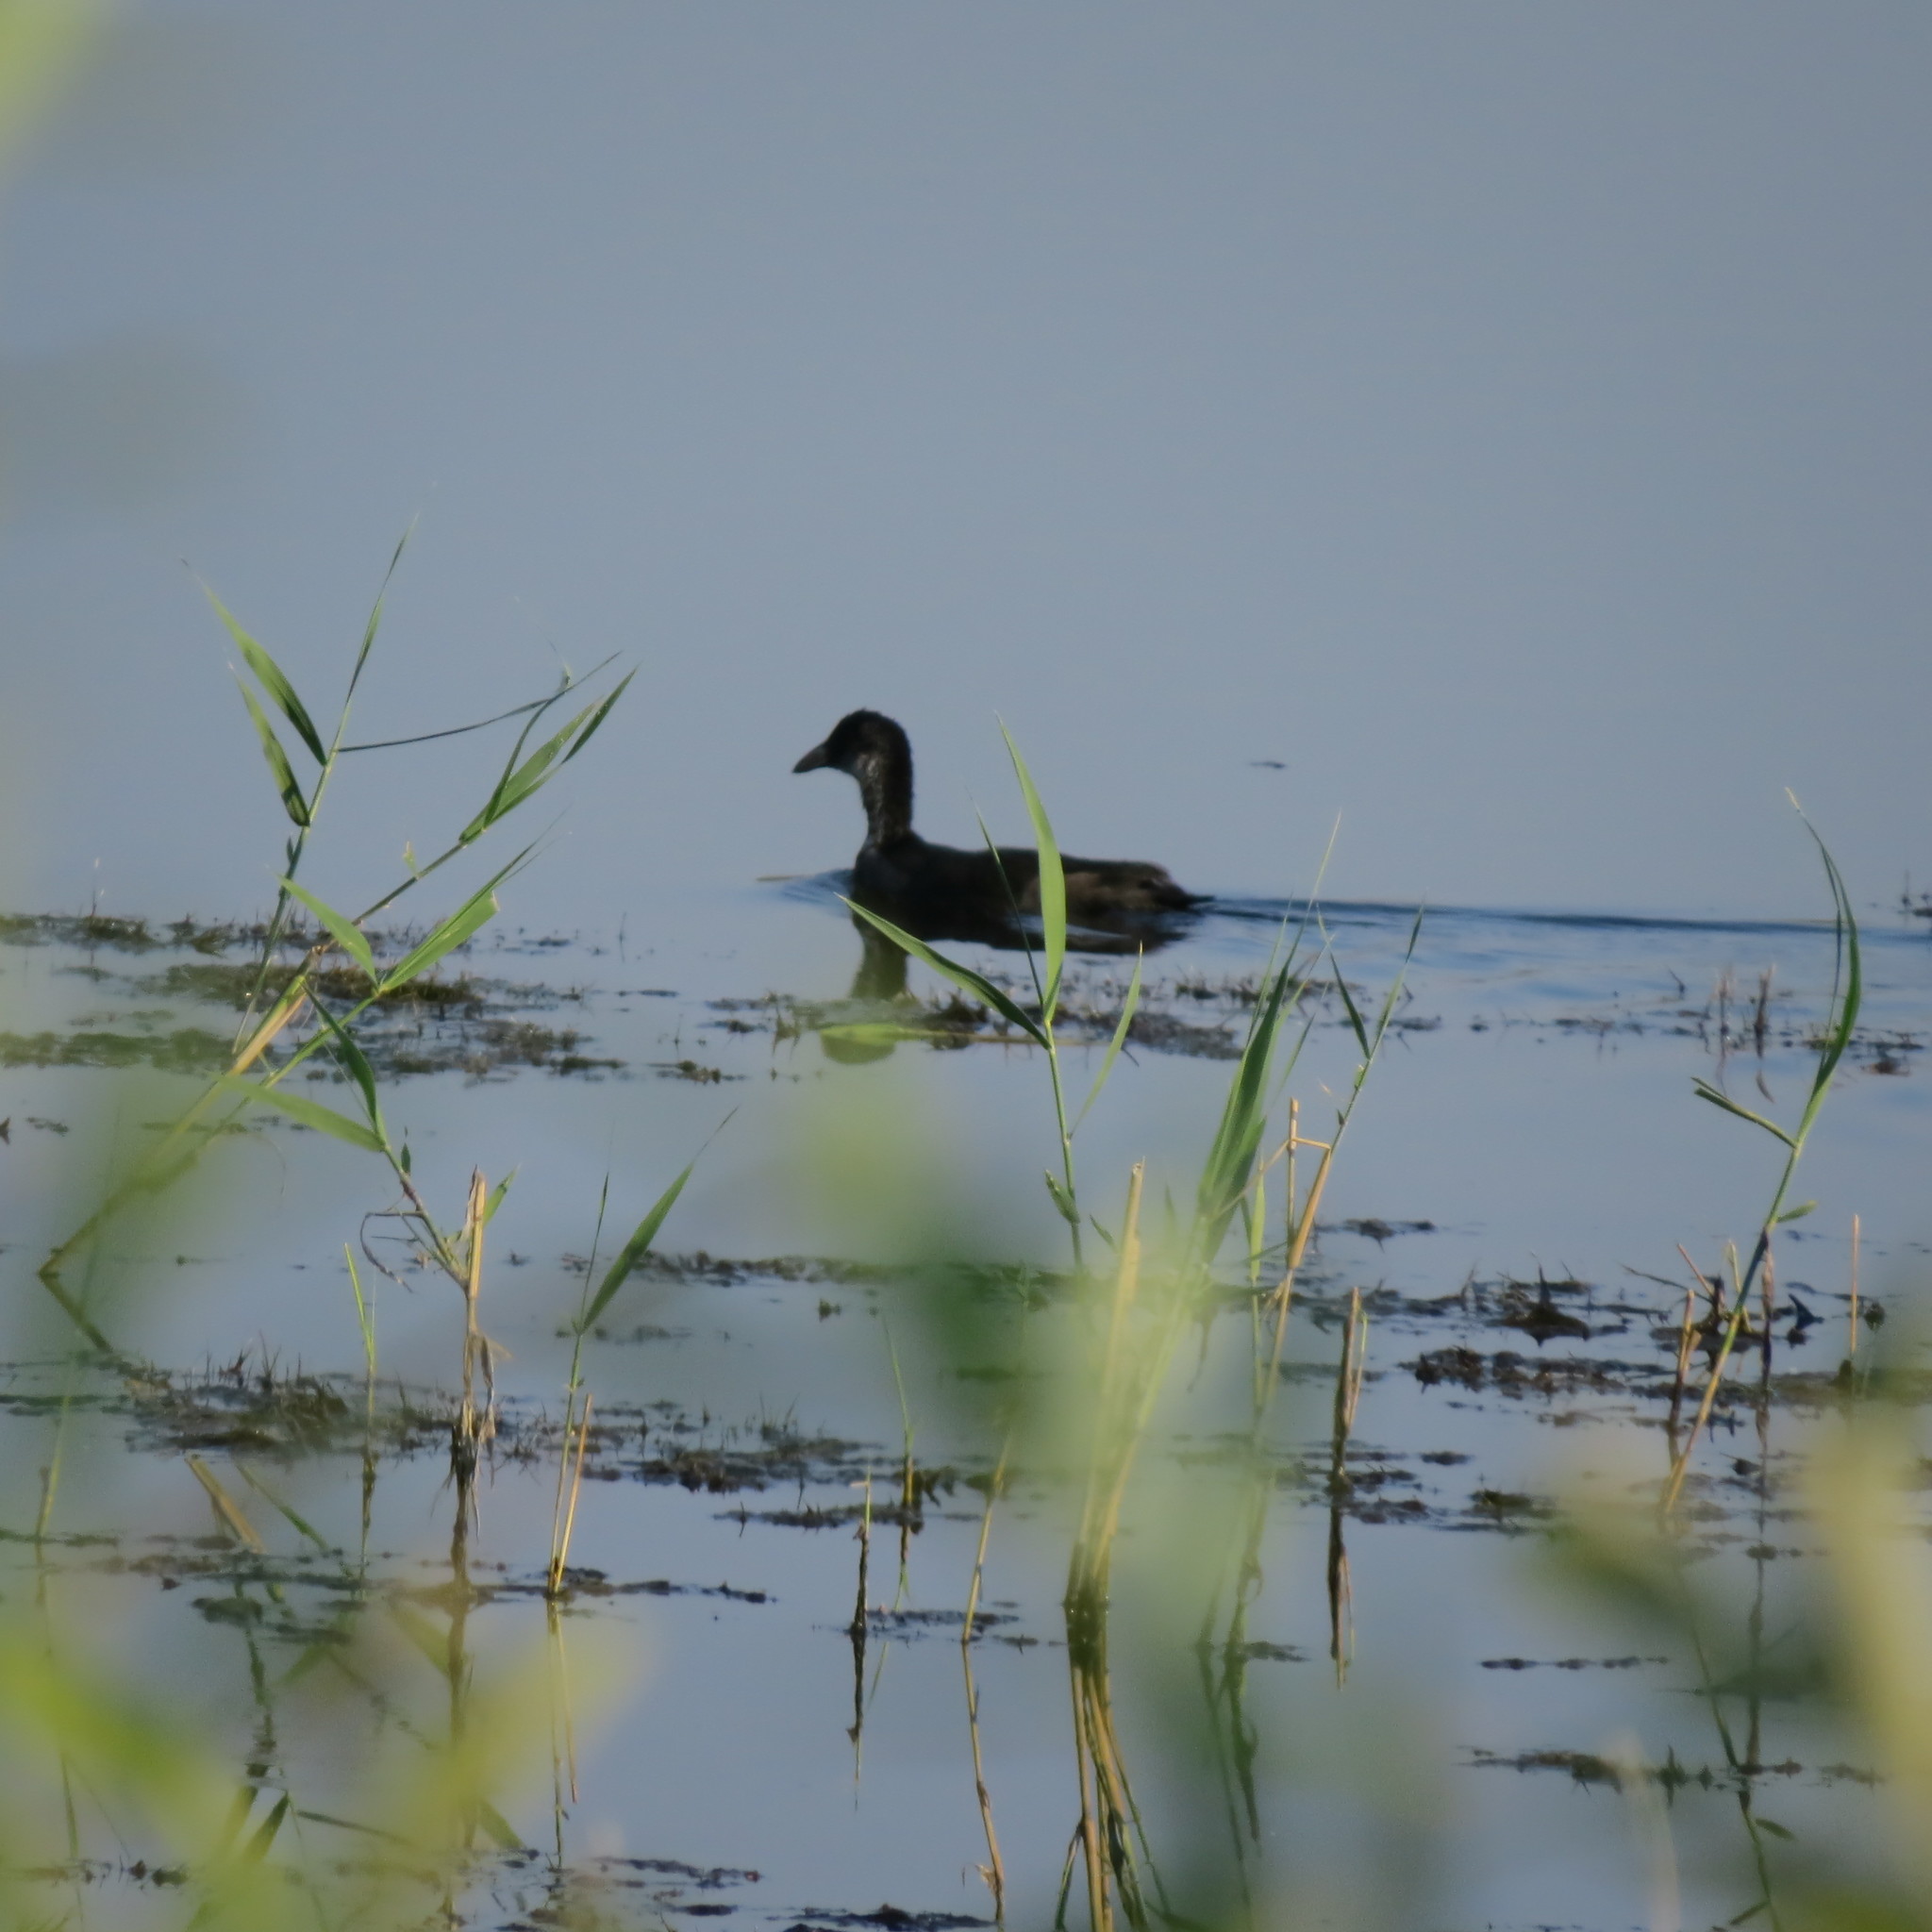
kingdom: Animalia
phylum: Chordata
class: Aves
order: Gruiformes
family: Rallidae
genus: Fulica
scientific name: Fulica atra
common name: Eurasian coot
